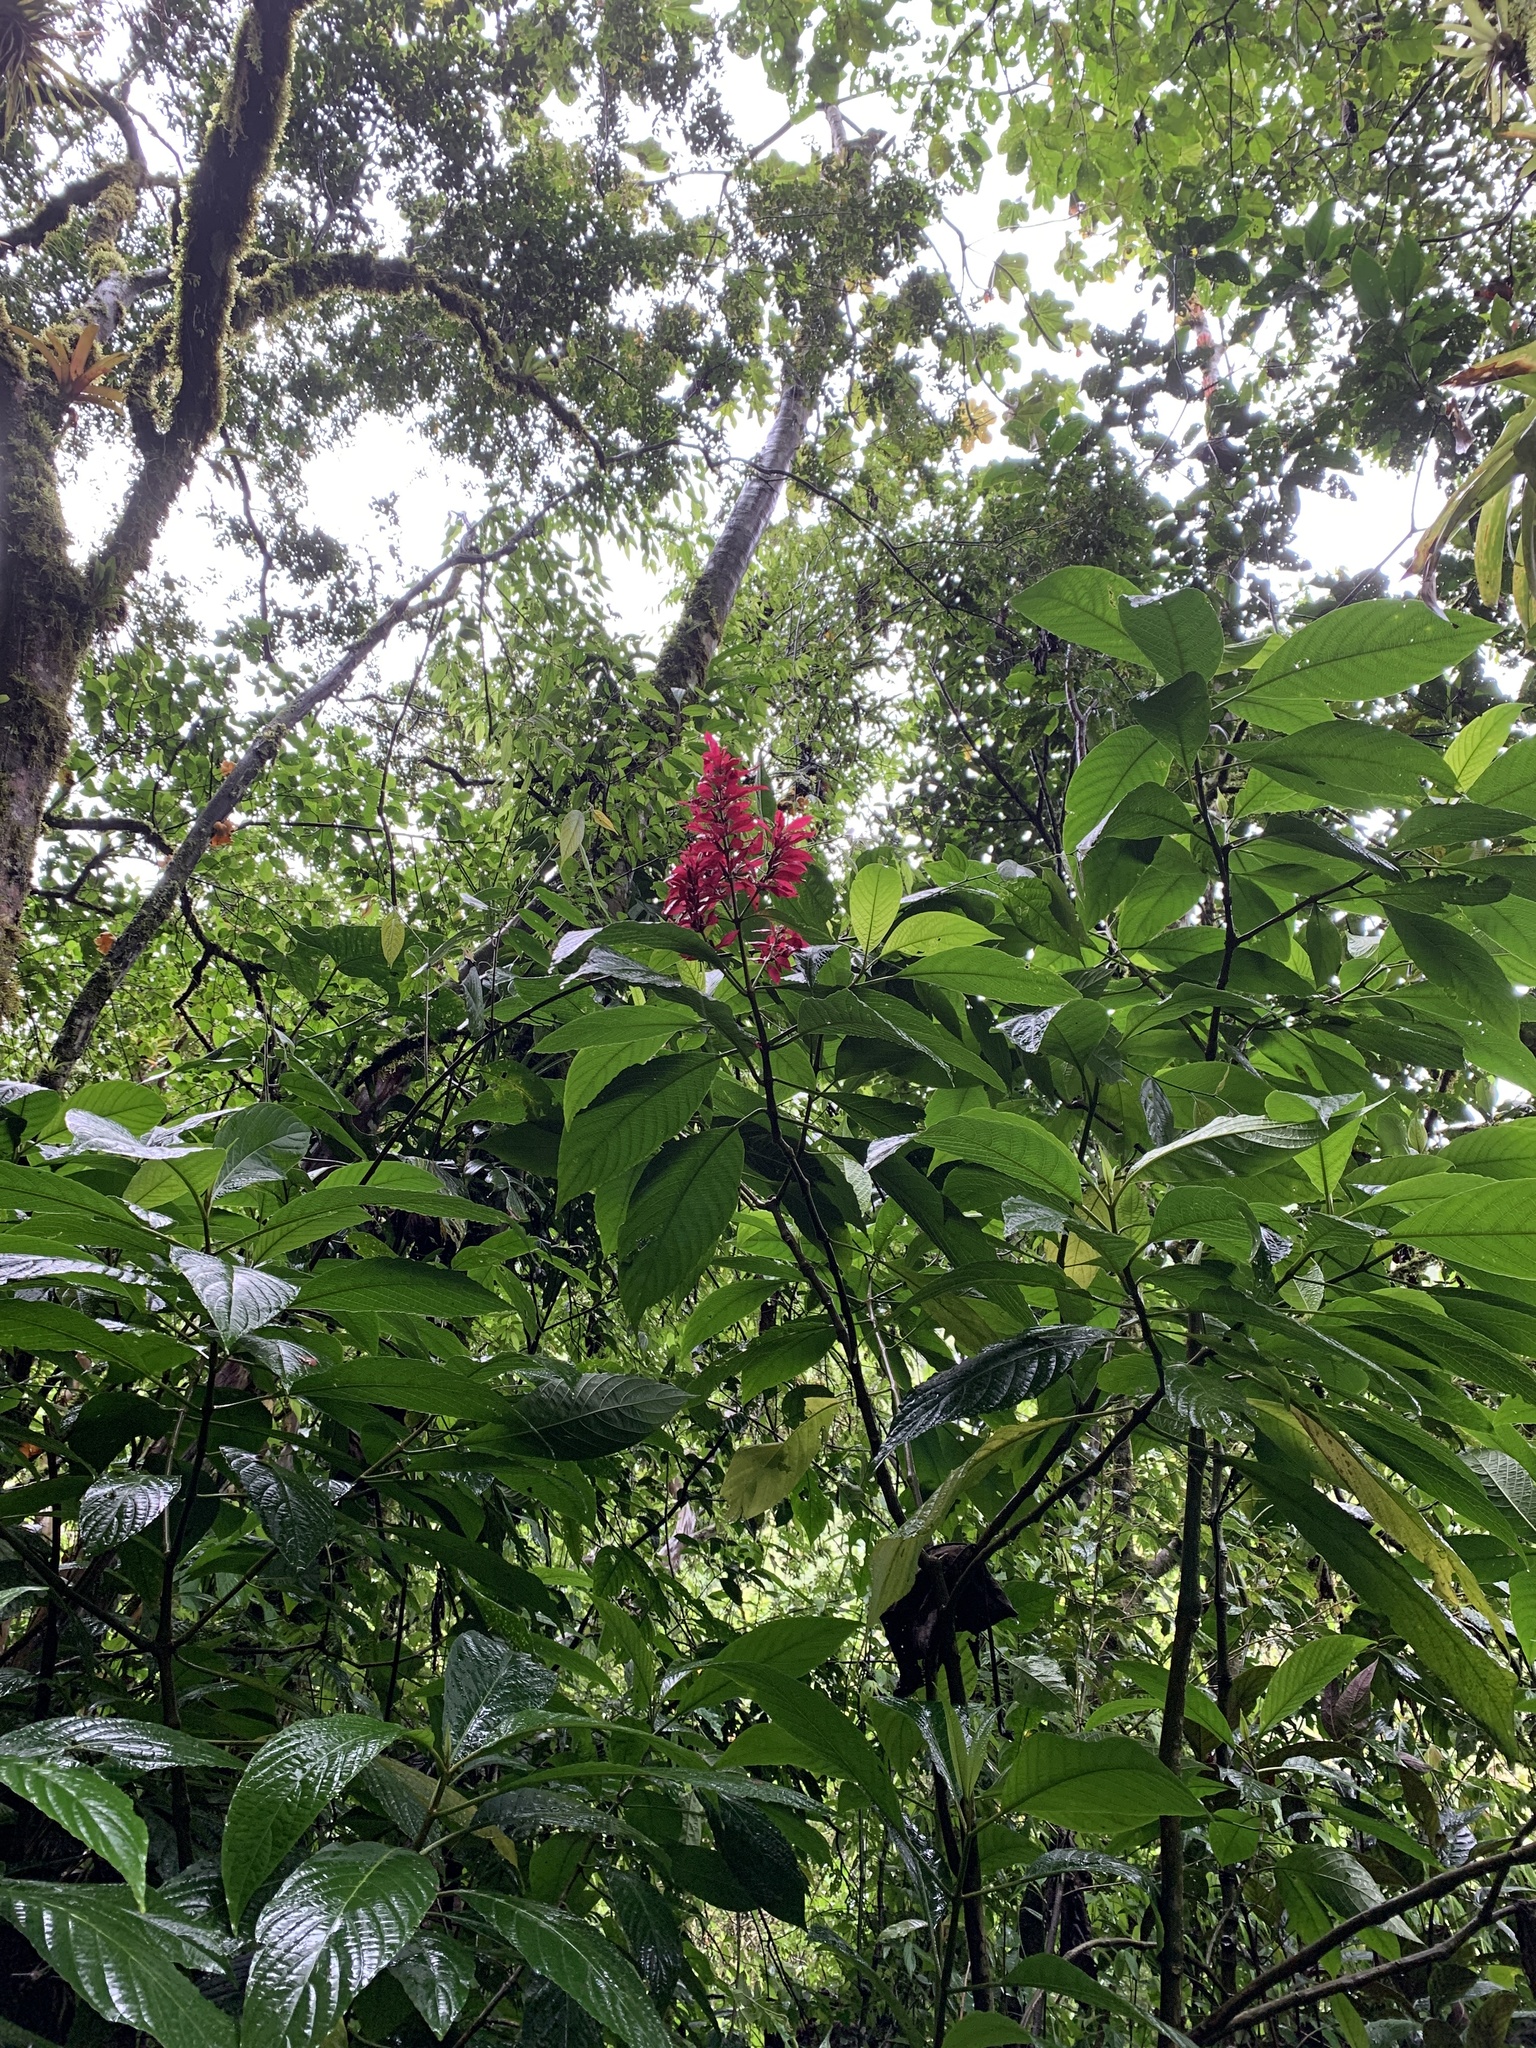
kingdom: Plantae
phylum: Tracheophyta
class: Magnoliopsida
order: Lamiales
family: Acanthaceae
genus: Megaskepasma
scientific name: Megaskepasma erythrochlamys
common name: Brazilian red-cloak
